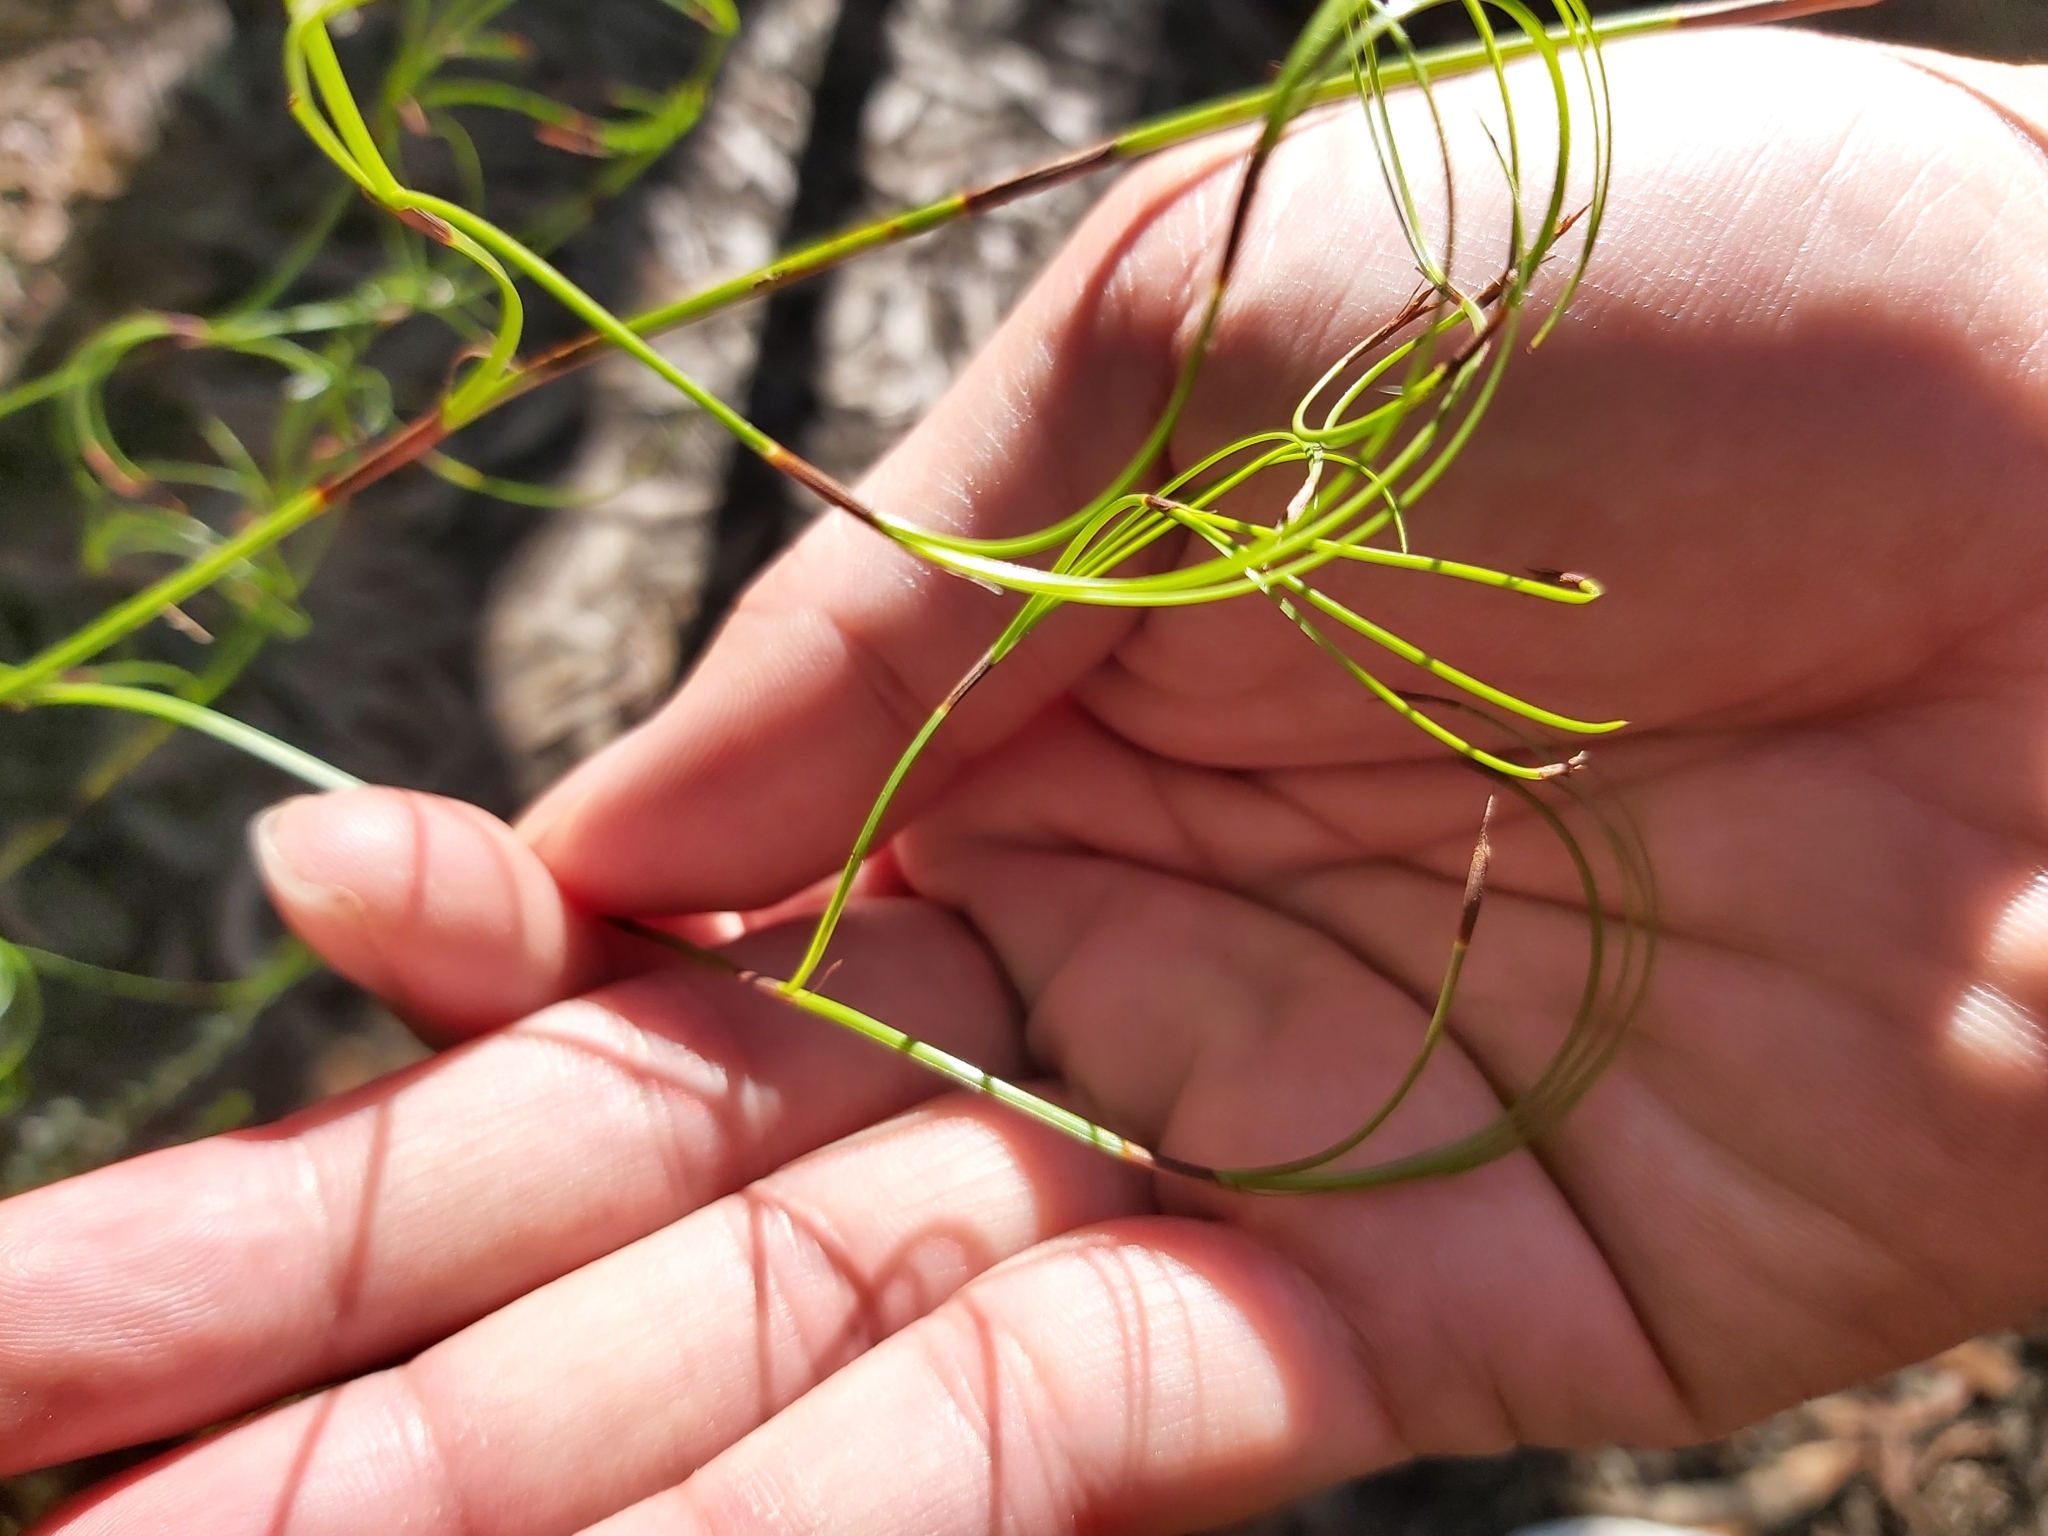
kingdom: Plantae
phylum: Tracheophyta
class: Liliopsida
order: Poales
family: Cyperaceae
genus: Caustis
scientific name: Caustis flexuosa
